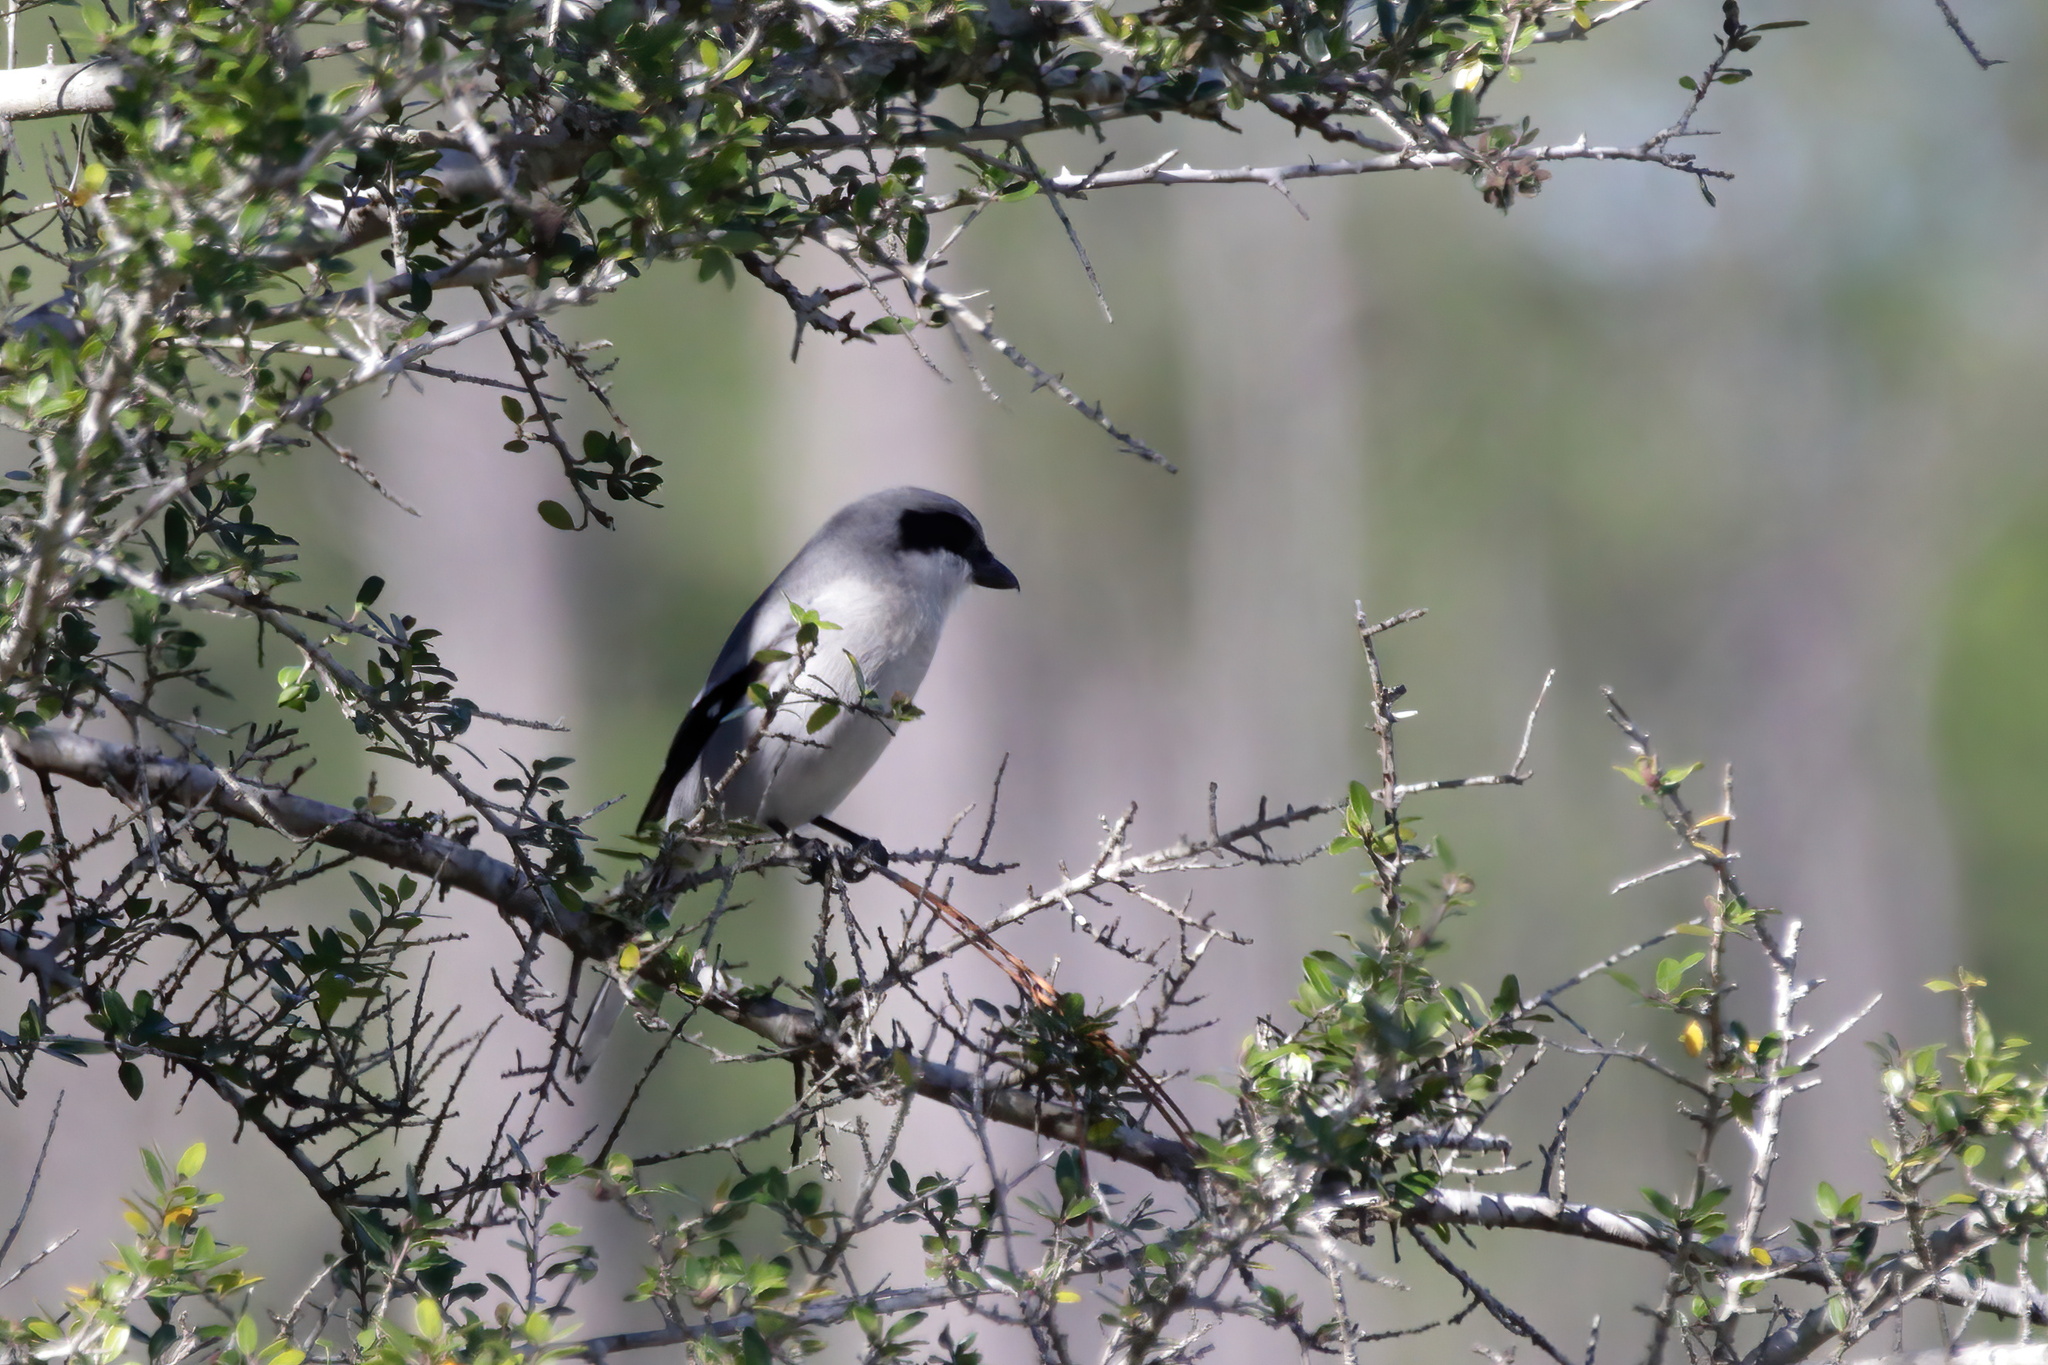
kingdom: Animalia
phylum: Chordata
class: Aves
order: Passeriformes
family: Laniidae
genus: Lanius
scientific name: Lanius ludovicianus
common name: Loggerhead shrike
